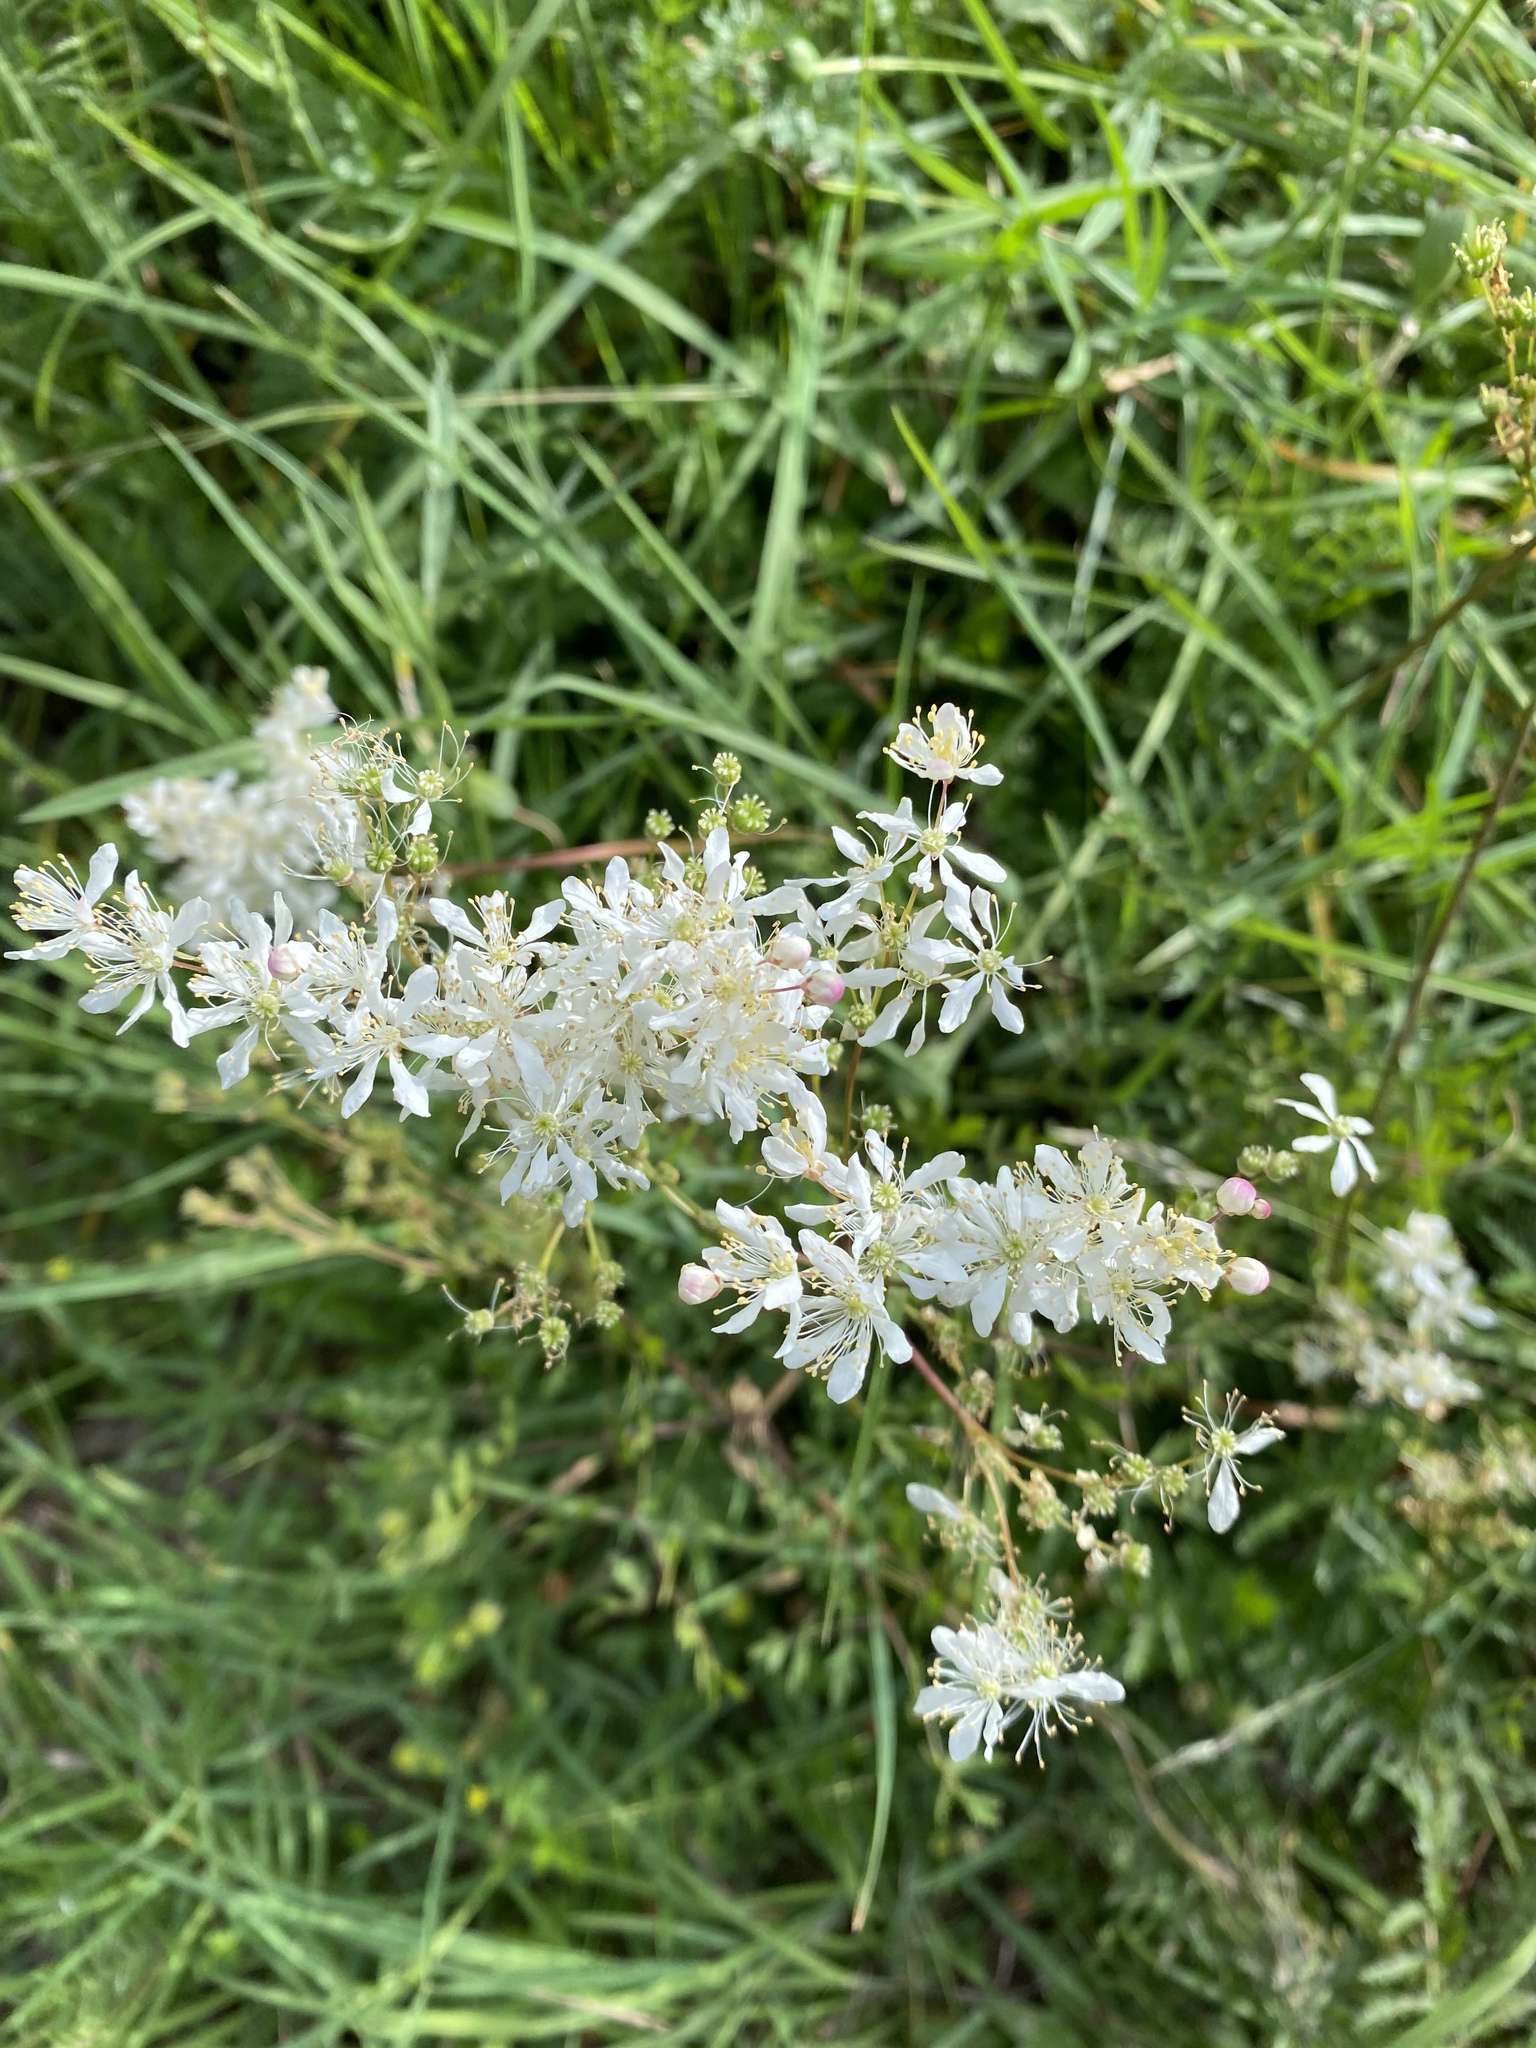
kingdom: Plantae
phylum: Tracheophyta
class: Magnoliopsida
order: Rosales
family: Rosaceae
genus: Filipendula
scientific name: Filipendula vulgaris
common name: Dropwort
